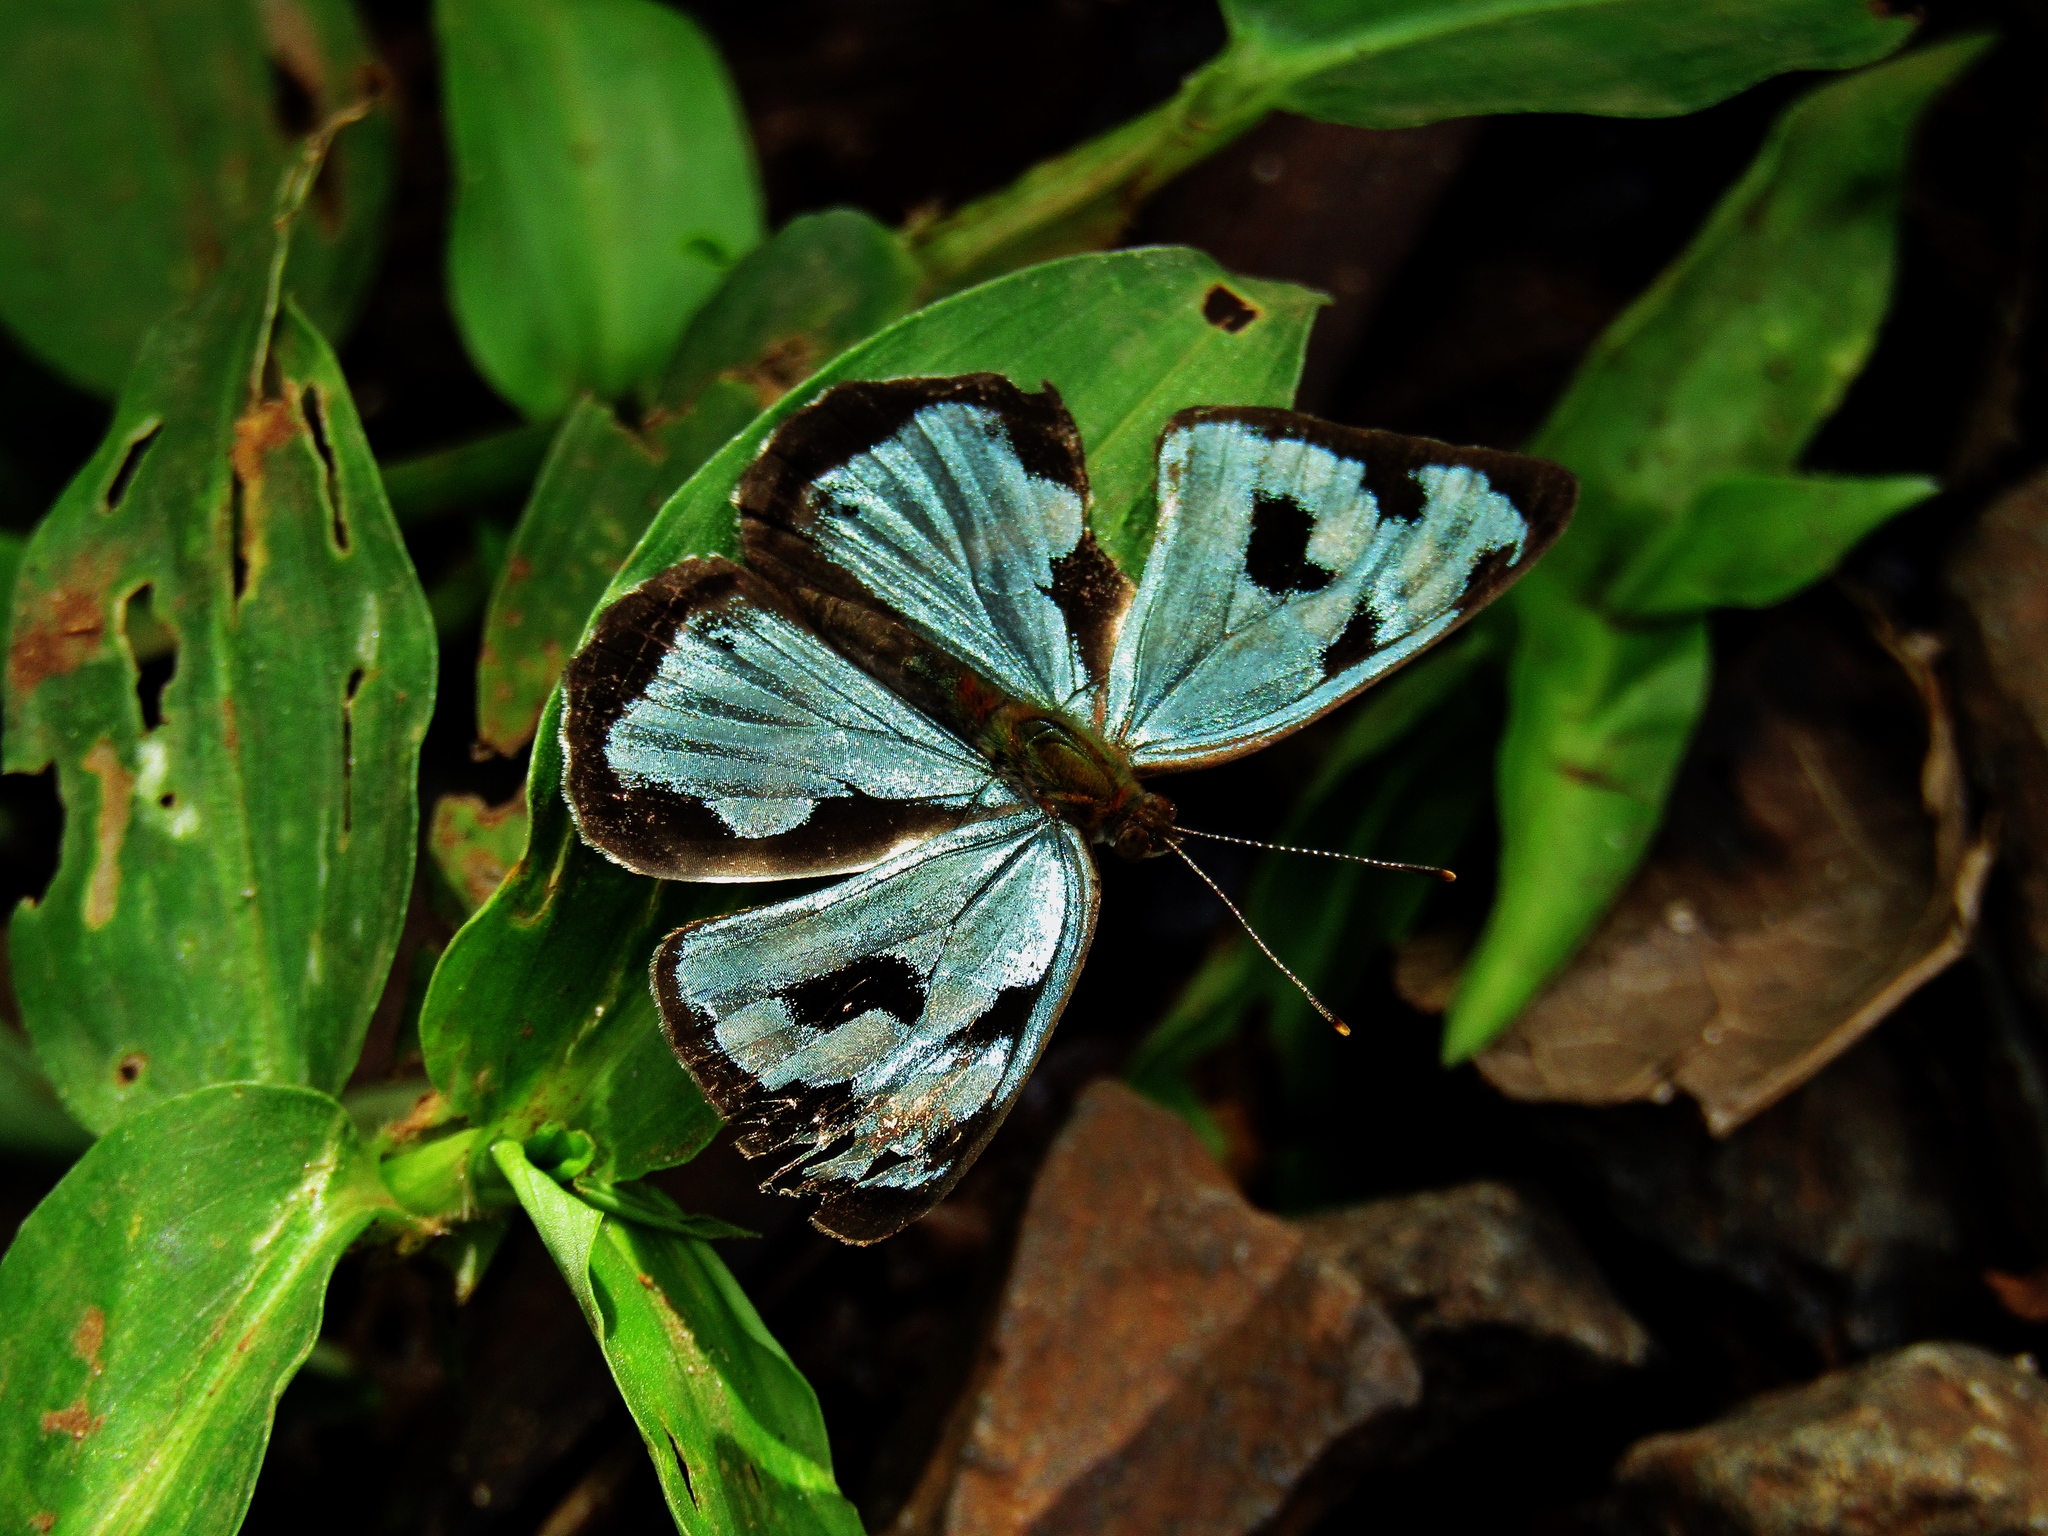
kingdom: Animalia
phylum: Arthropoda
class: Insecta
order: Lepidoptera
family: Nymphalidae
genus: Dynamine
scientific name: Dynamine mylitta
